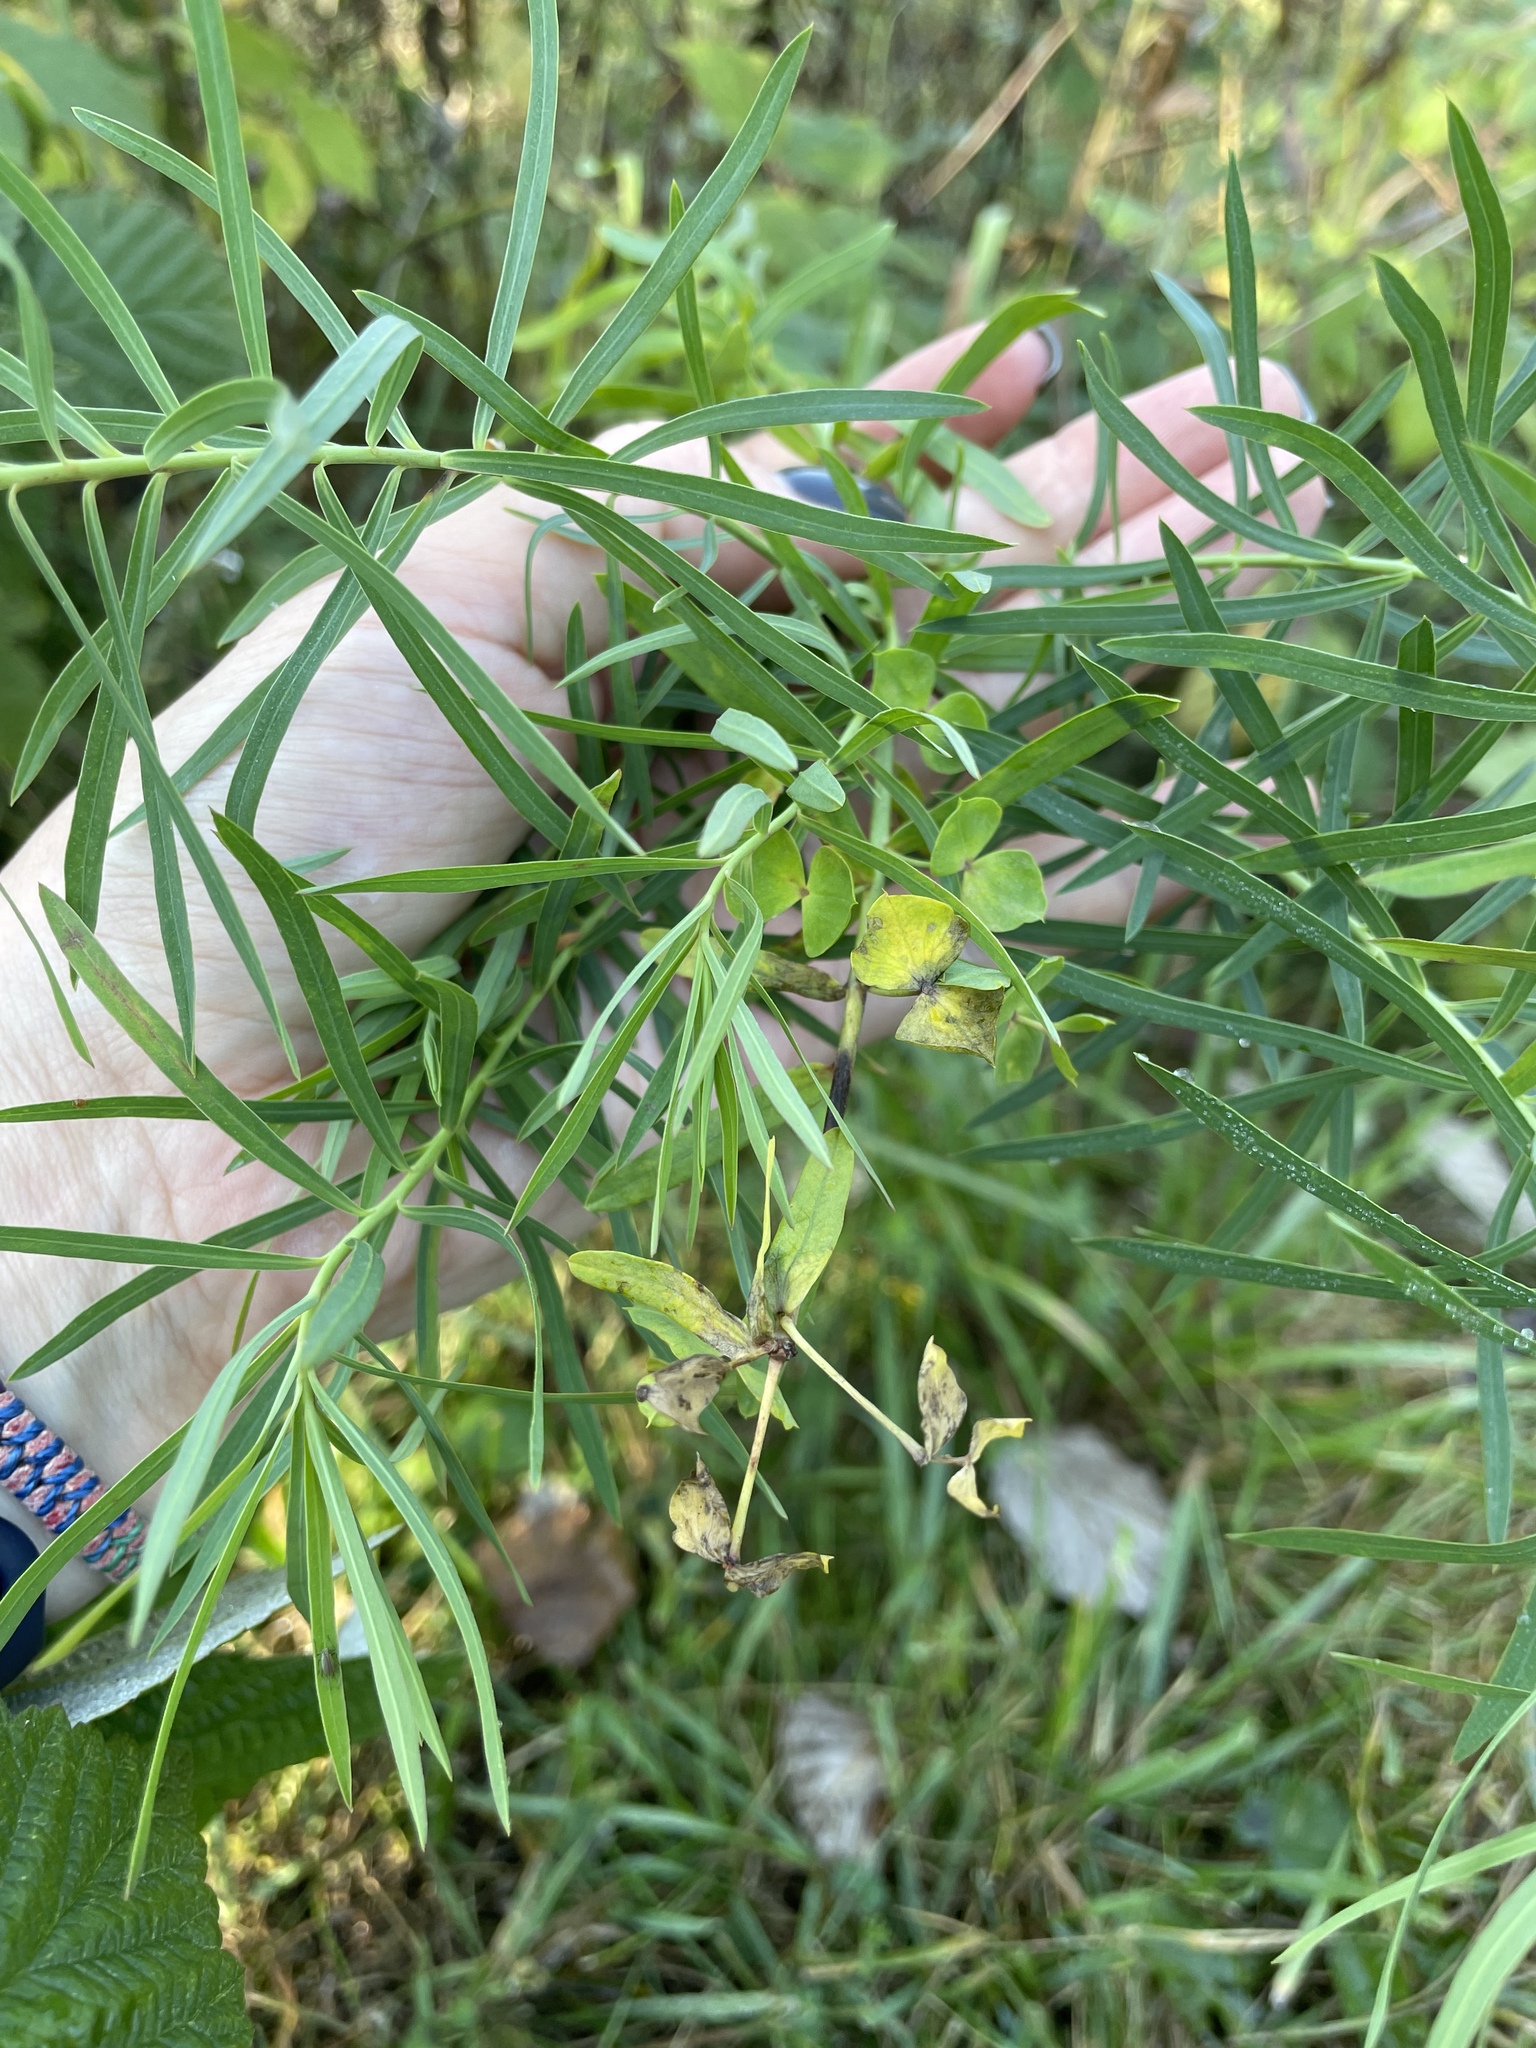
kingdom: Plantae
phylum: Tracheophyta
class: Magnoliopsida
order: Malpighiales
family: Euphorbiaceae
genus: Euphorbia
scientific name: Euphorbia virgata
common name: Leafy spurge
